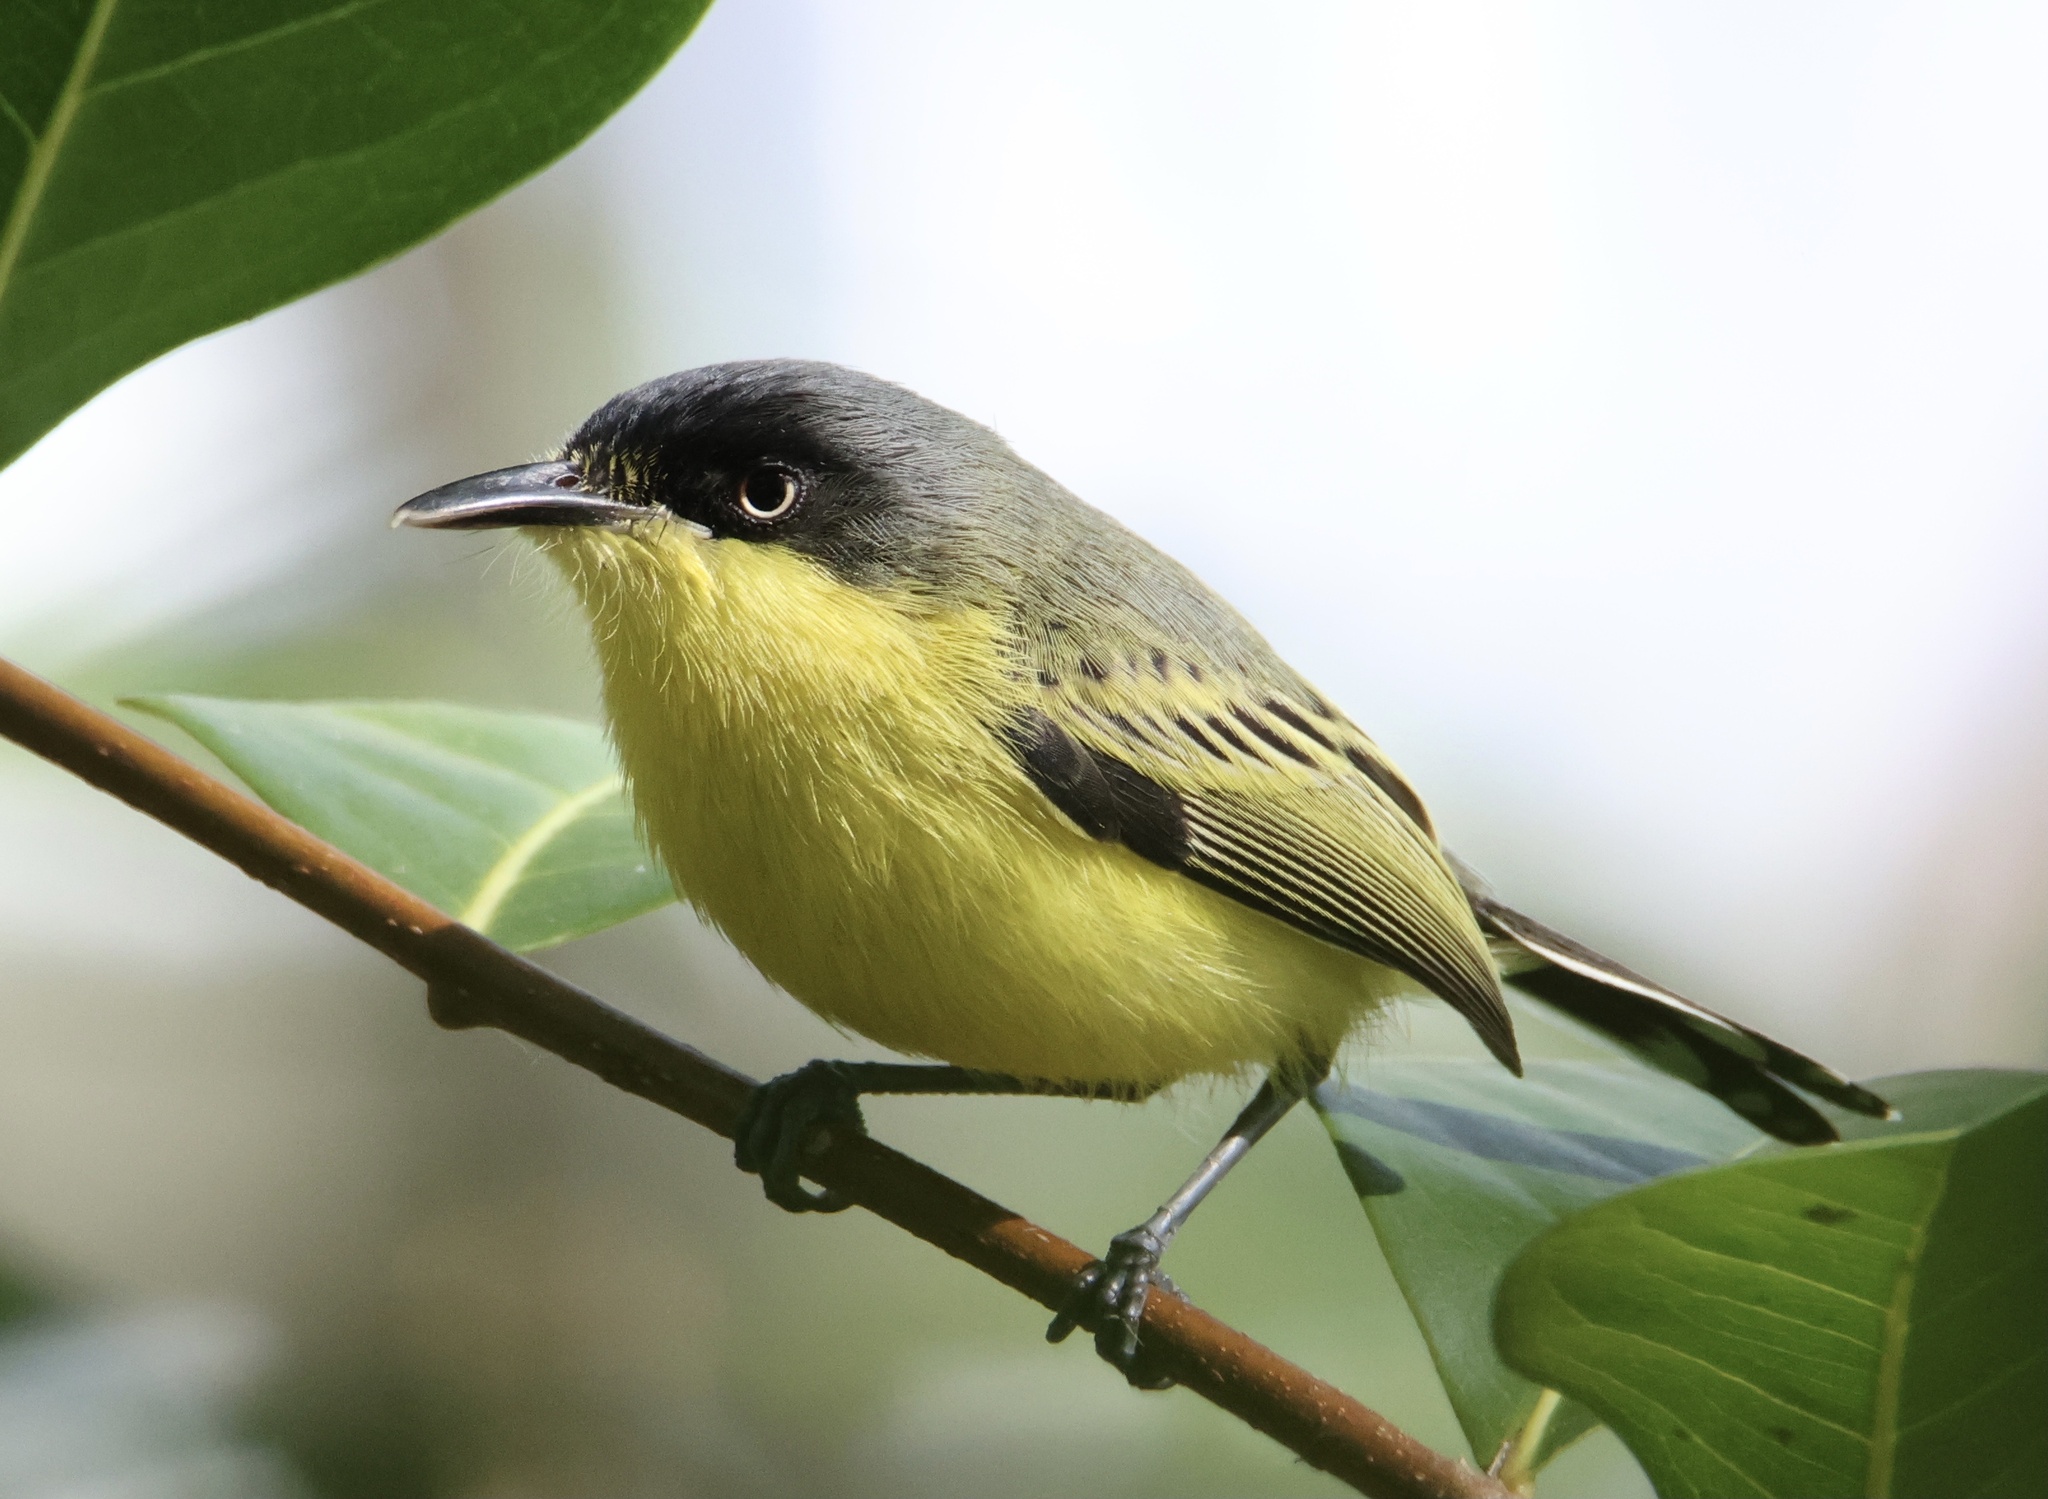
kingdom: Animalia
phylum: Chordata
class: Aves
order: Passeriformes
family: Tyrannidae
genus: Todirostrum
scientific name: Todirostrum cinereum
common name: Common tody-flycatcher
